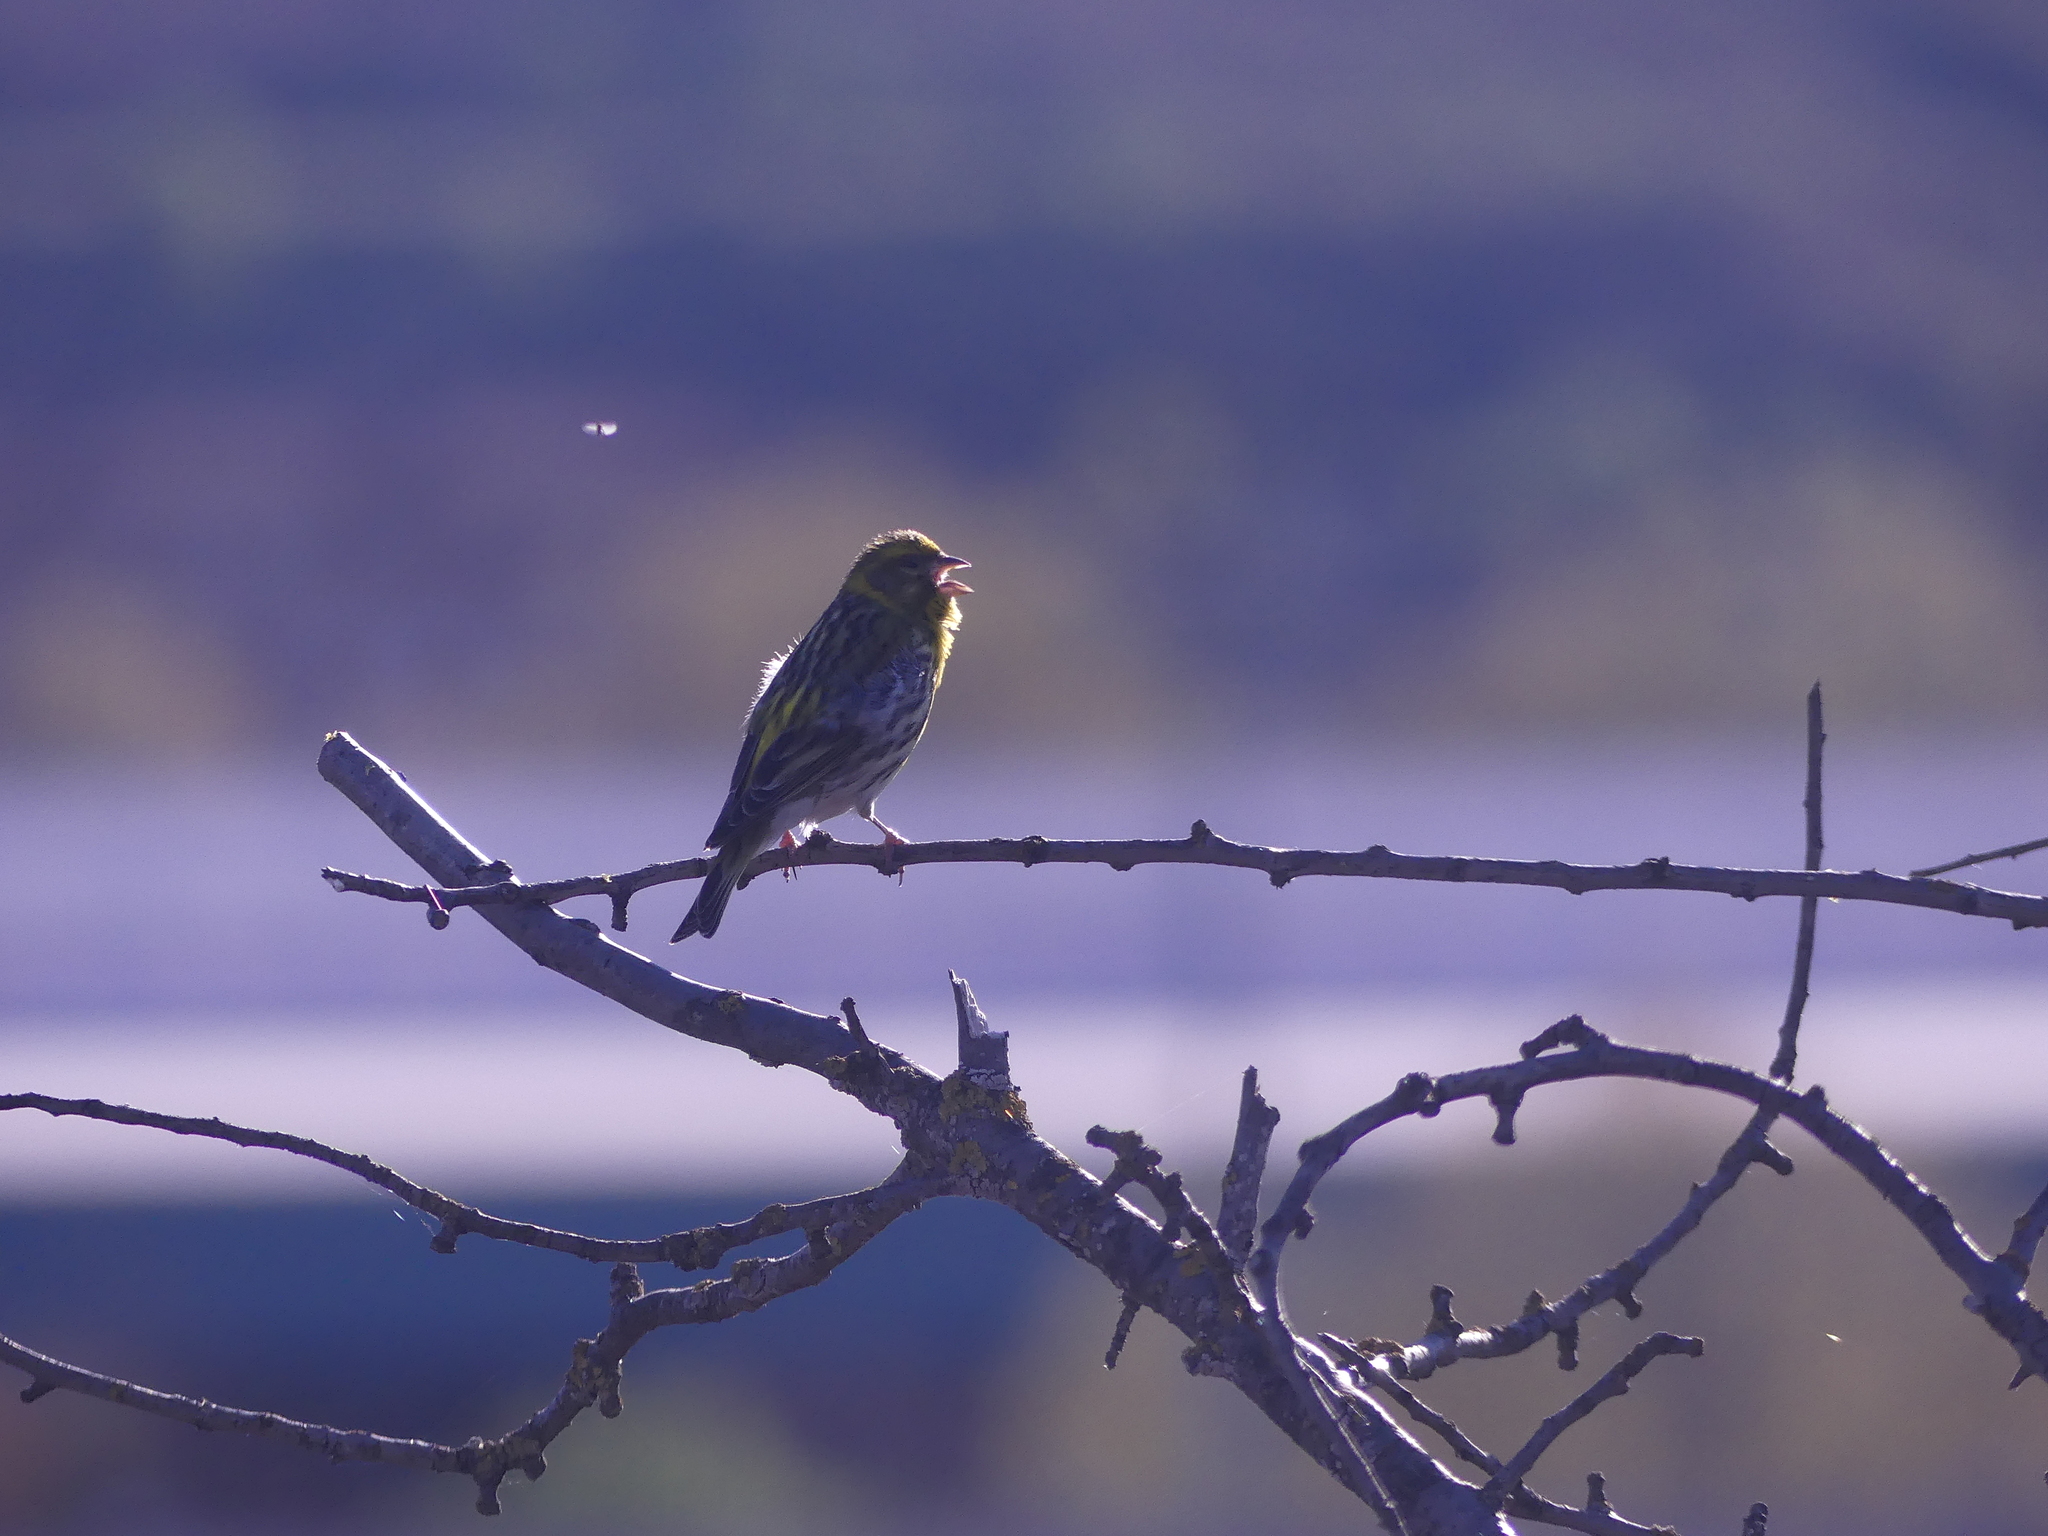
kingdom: Animalia
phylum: Chordata
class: Aves
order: Passeriformes
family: Fringillidae
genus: Serinus
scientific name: Serinus serinus
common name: European serin
